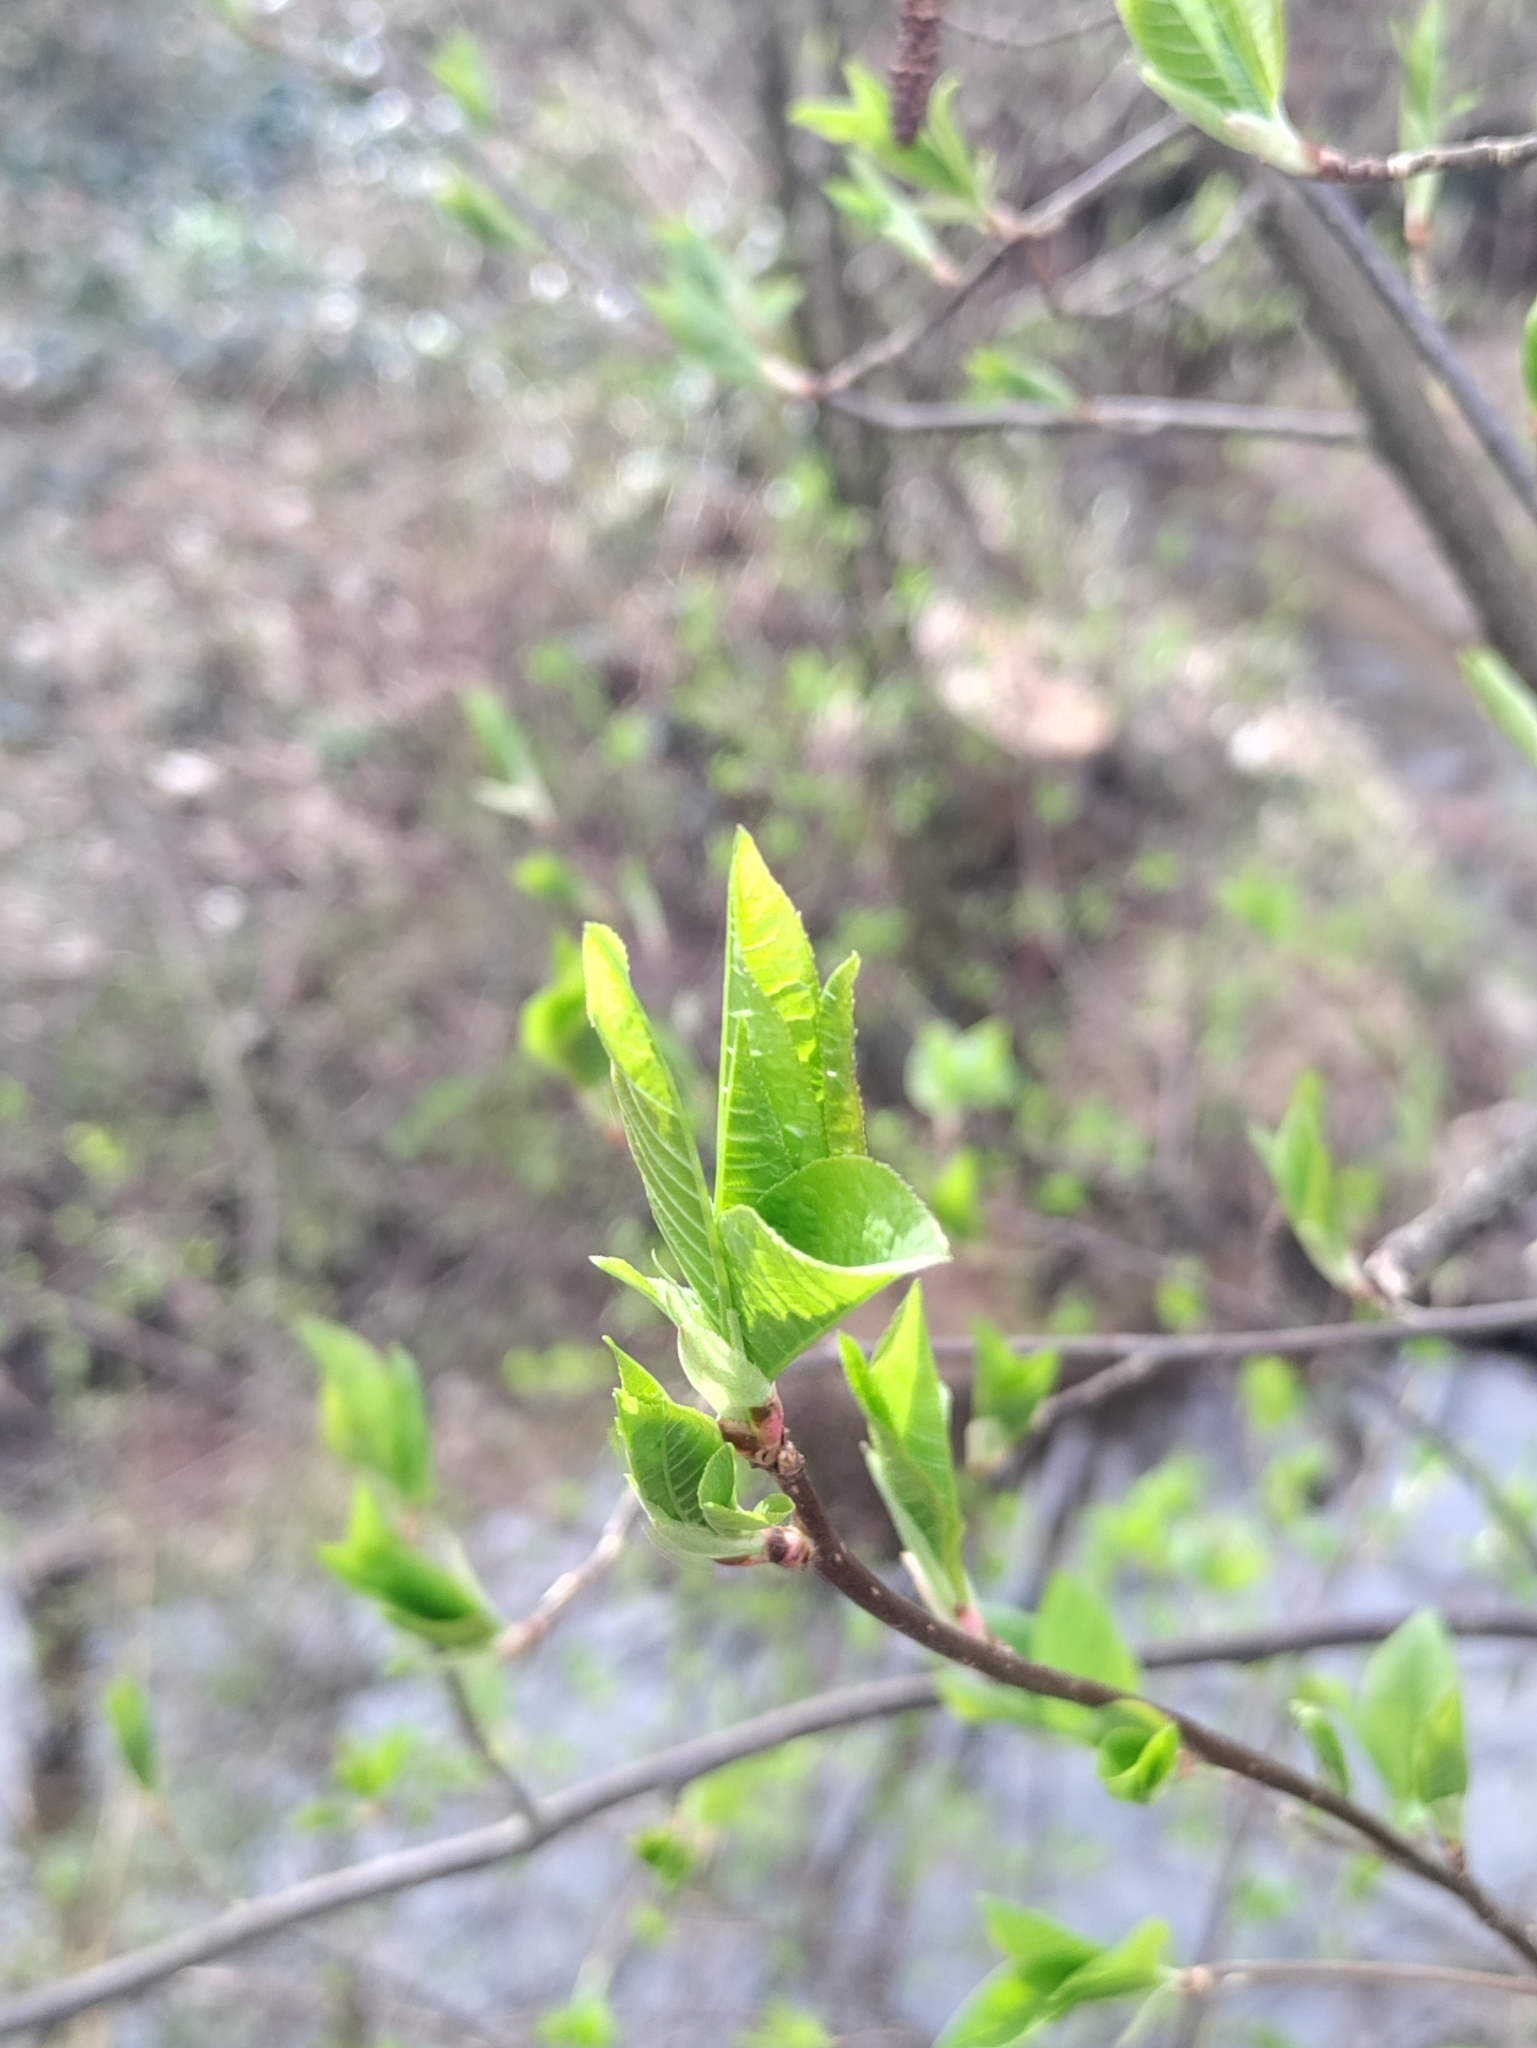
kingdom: Plantae
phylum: Tracheophyta
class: Magnoliopsida
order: Rosales
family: Rosaceae
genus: Prunus
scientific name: Prunus padus
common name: Bird cherry
